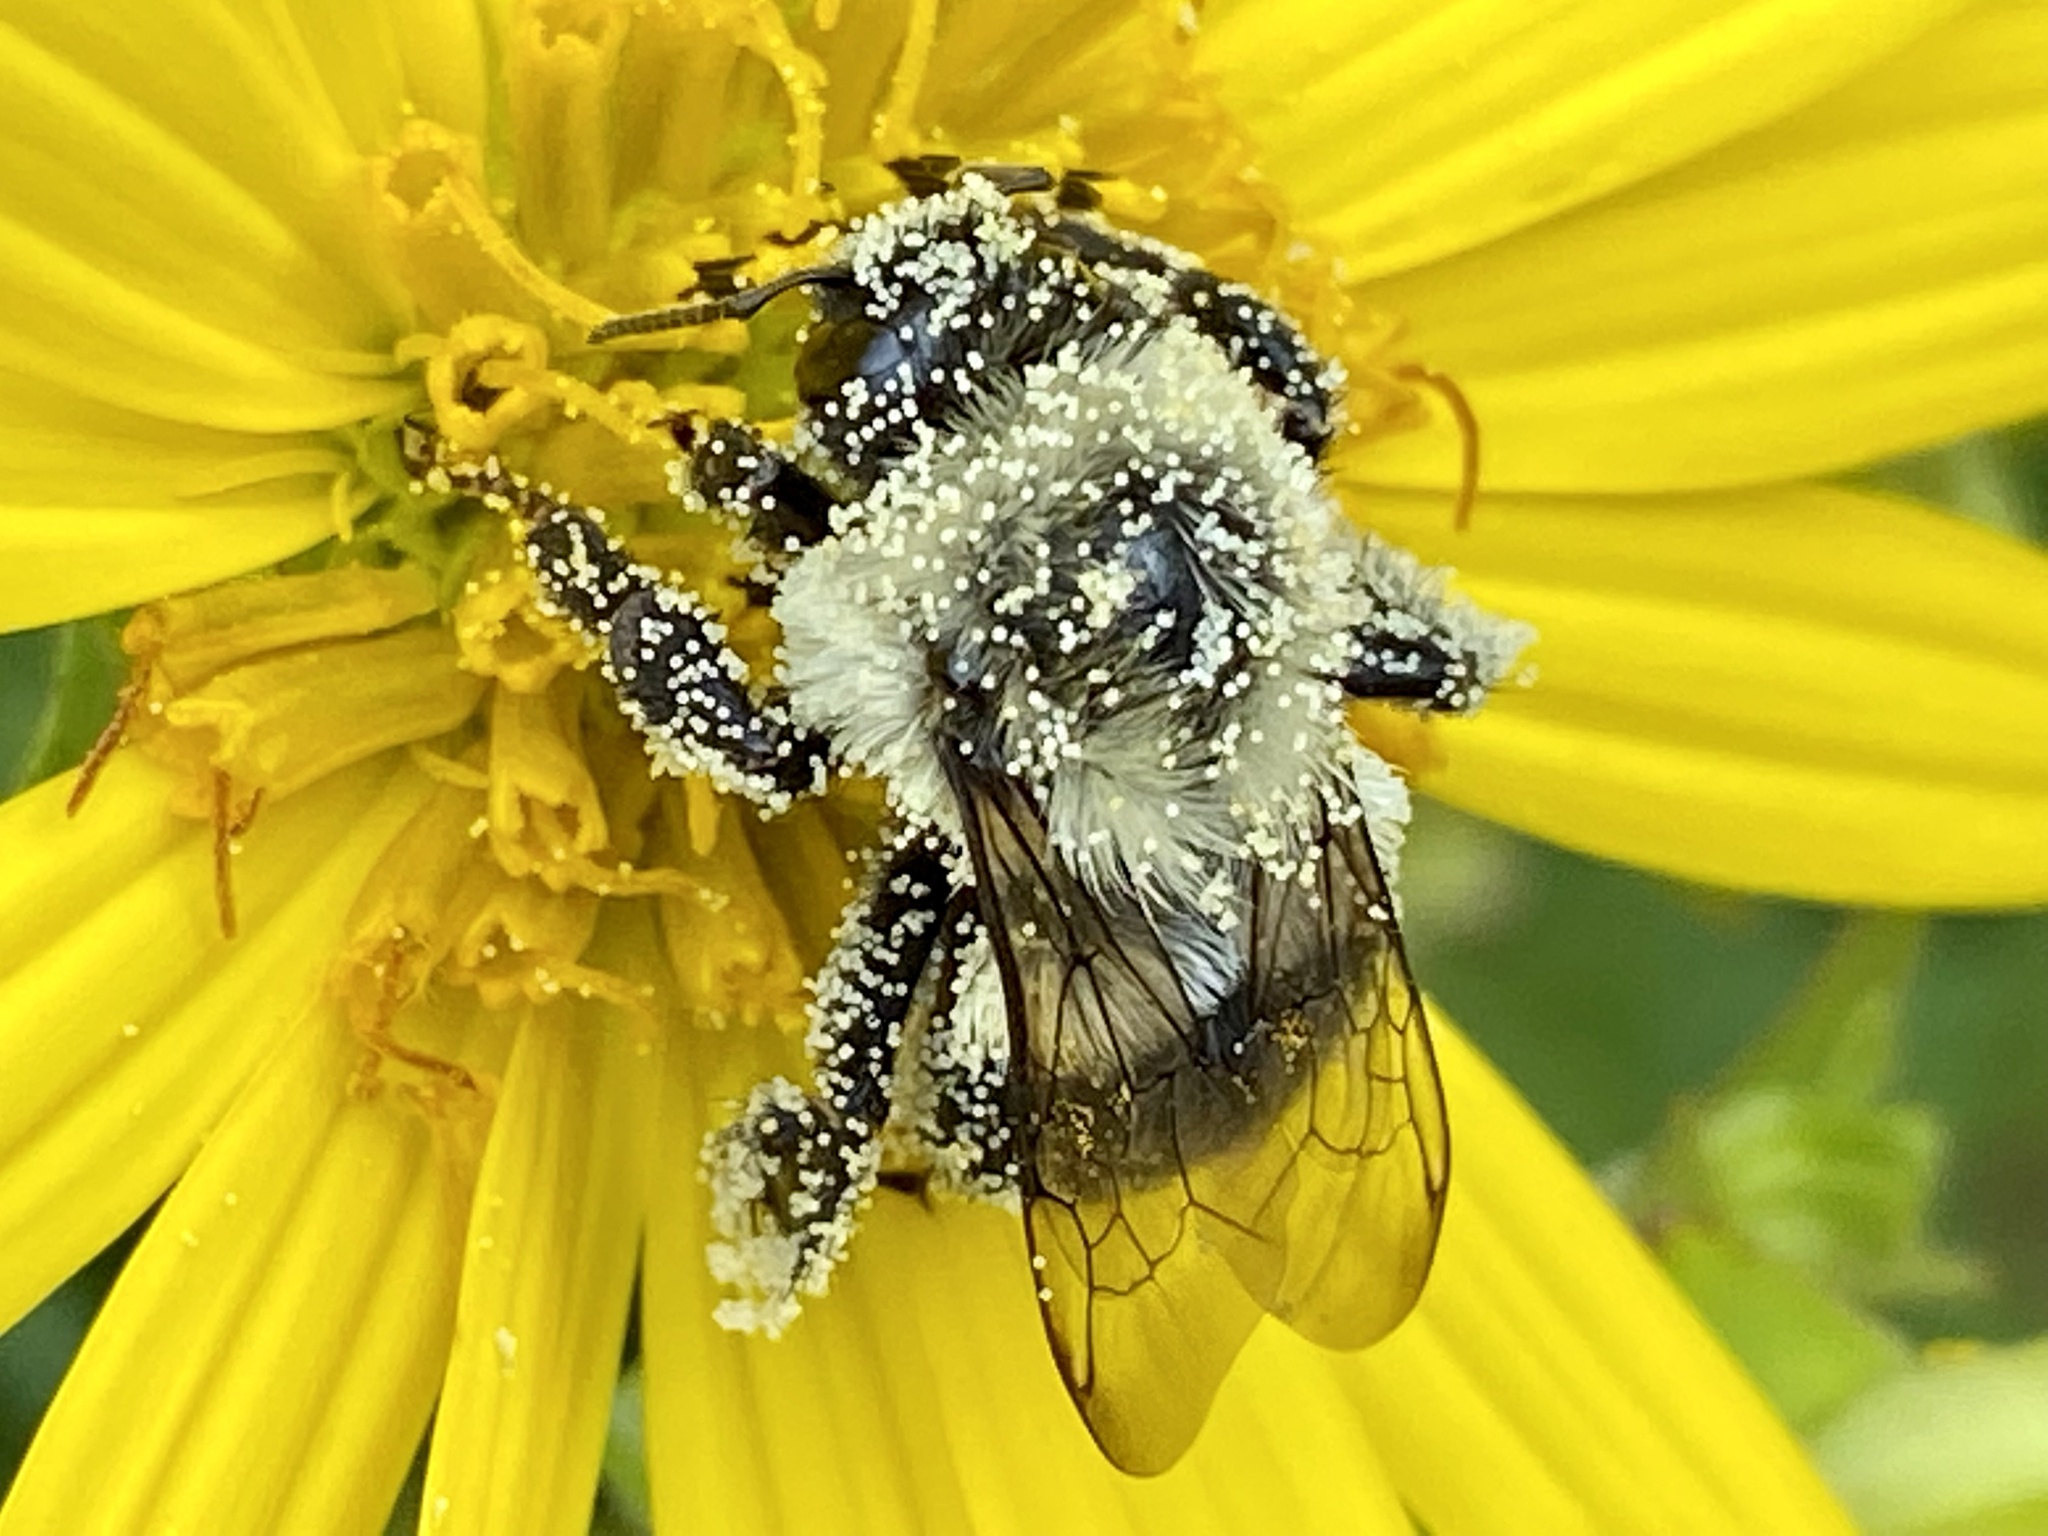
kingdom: Animalia
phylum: Arthropoda
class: Insecta
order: Hymenoptera
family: Apidae
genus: Bombus
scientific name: Bombus impatiens
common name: Common eastern bumble bee
